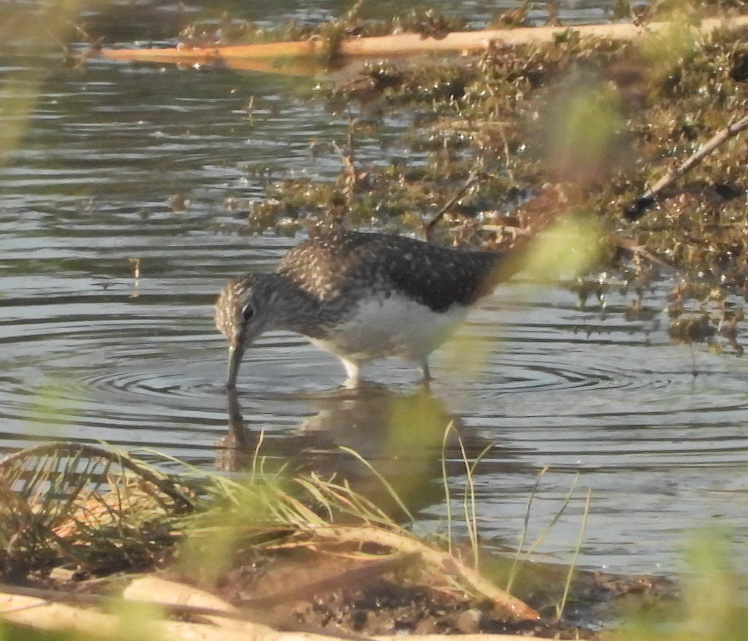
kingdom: Animalia
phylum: Chordata
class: Aves
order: Charadriiformes
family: Scolopacidae
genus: Tringa
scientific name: Tringa ochropus
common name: Green sandpiper
